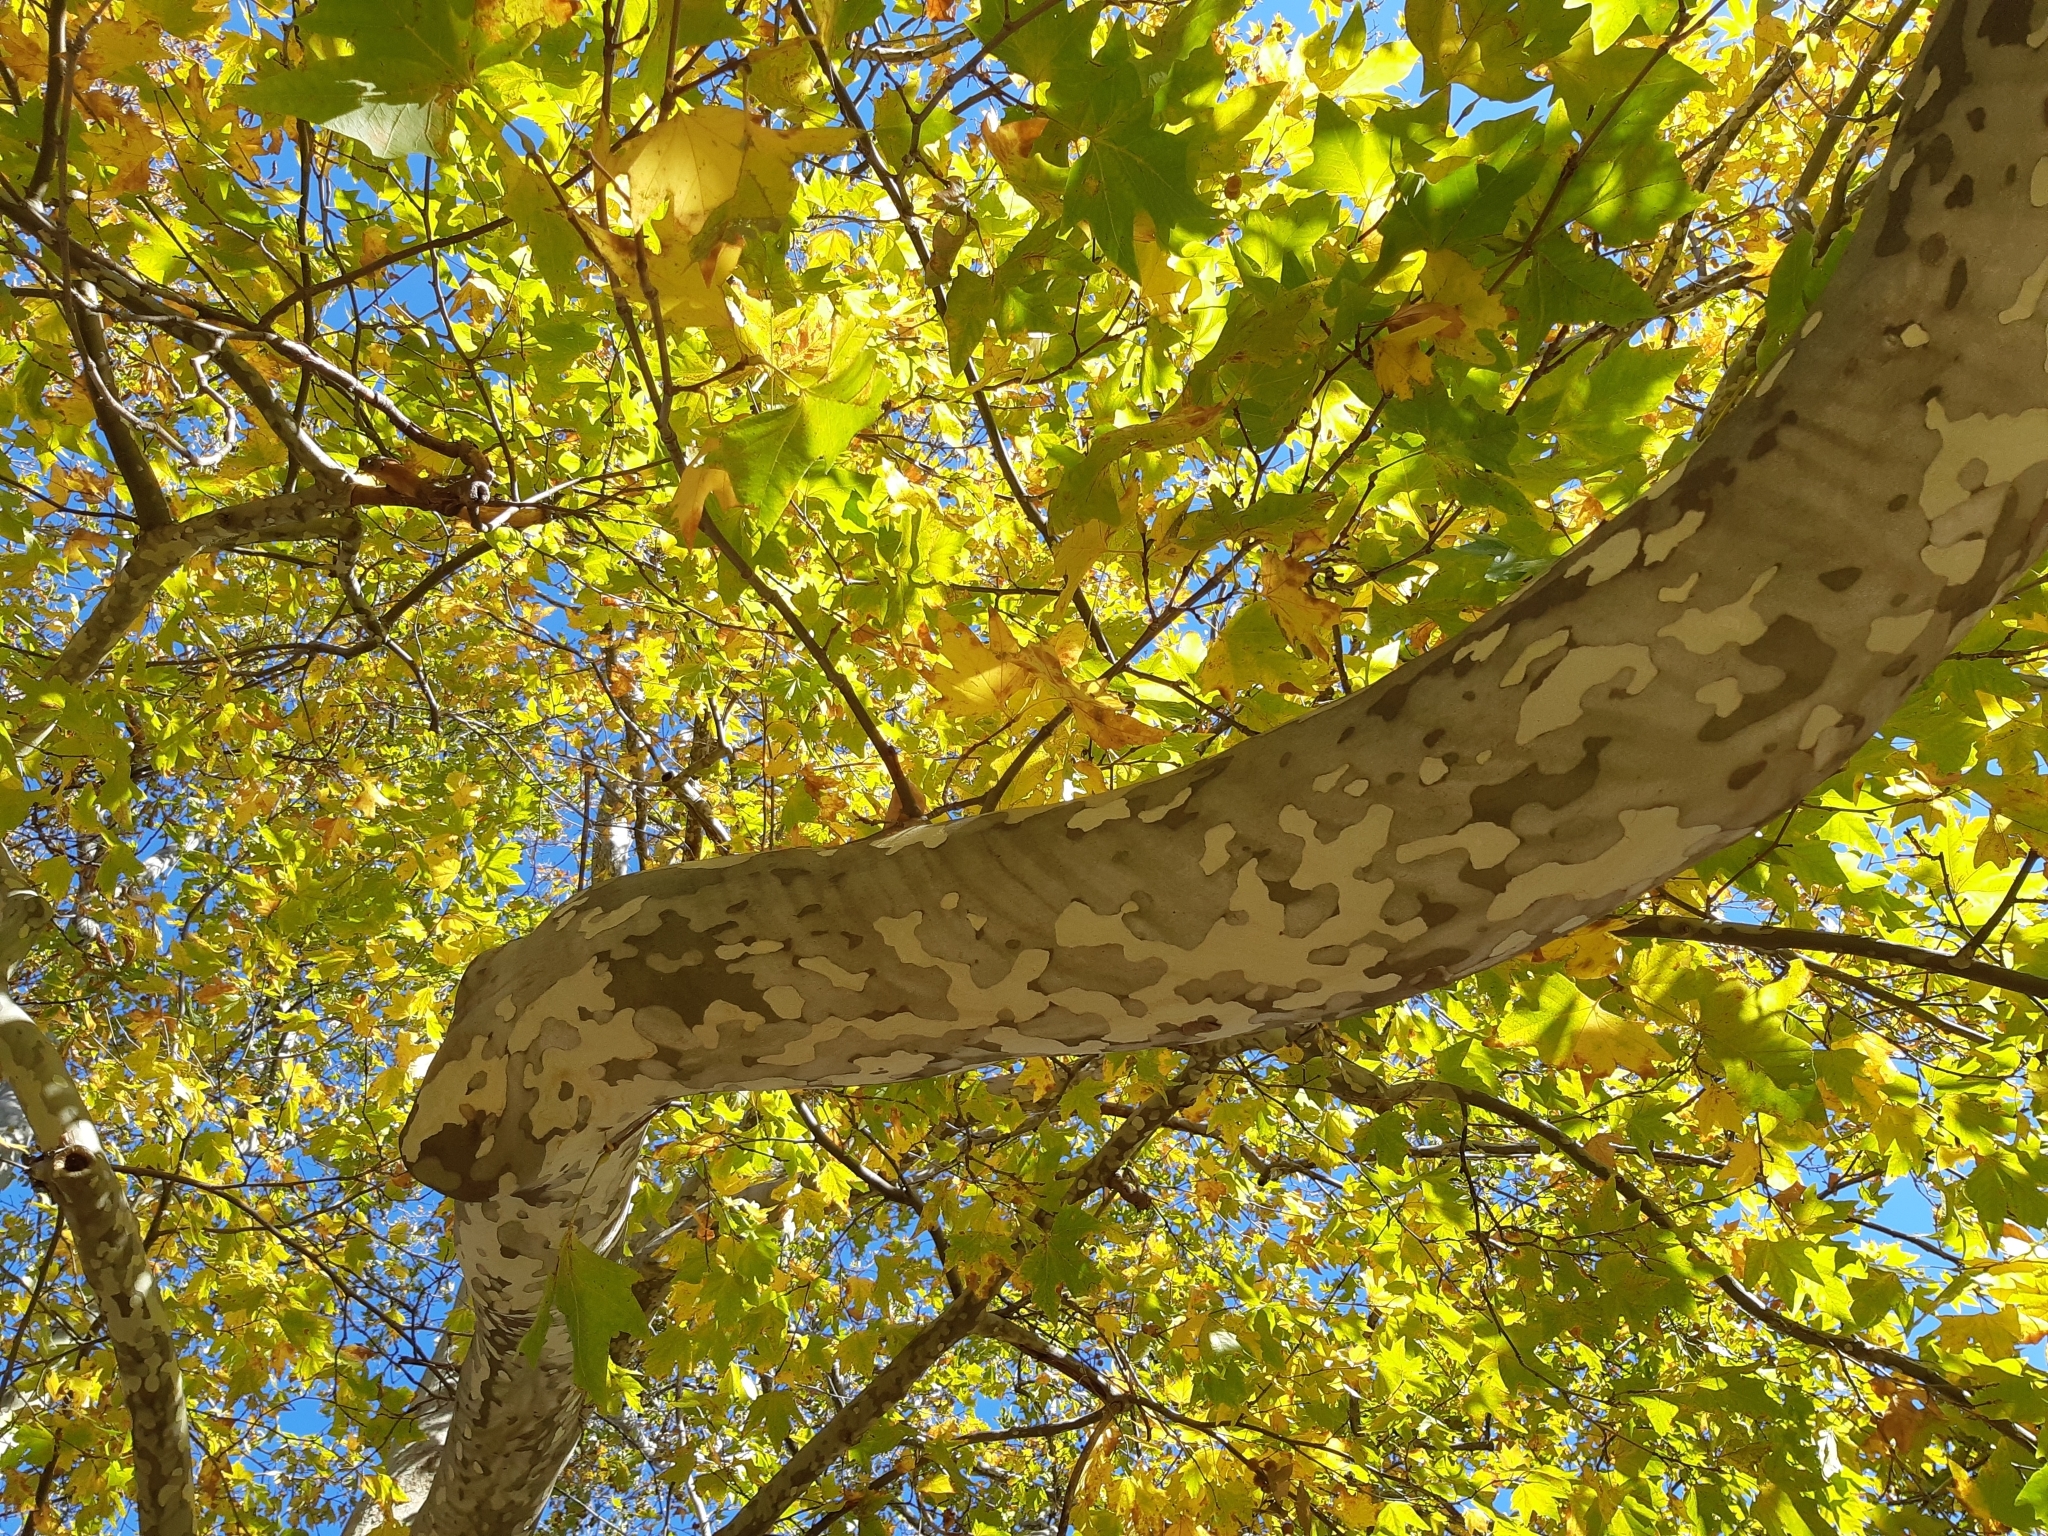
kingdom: Plantae
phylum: Tracheophyta
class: Magnoliopsida
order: Proteales
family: Platanaceae
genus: Platanus
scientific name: Platanus orientalis
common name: Oriental plane
